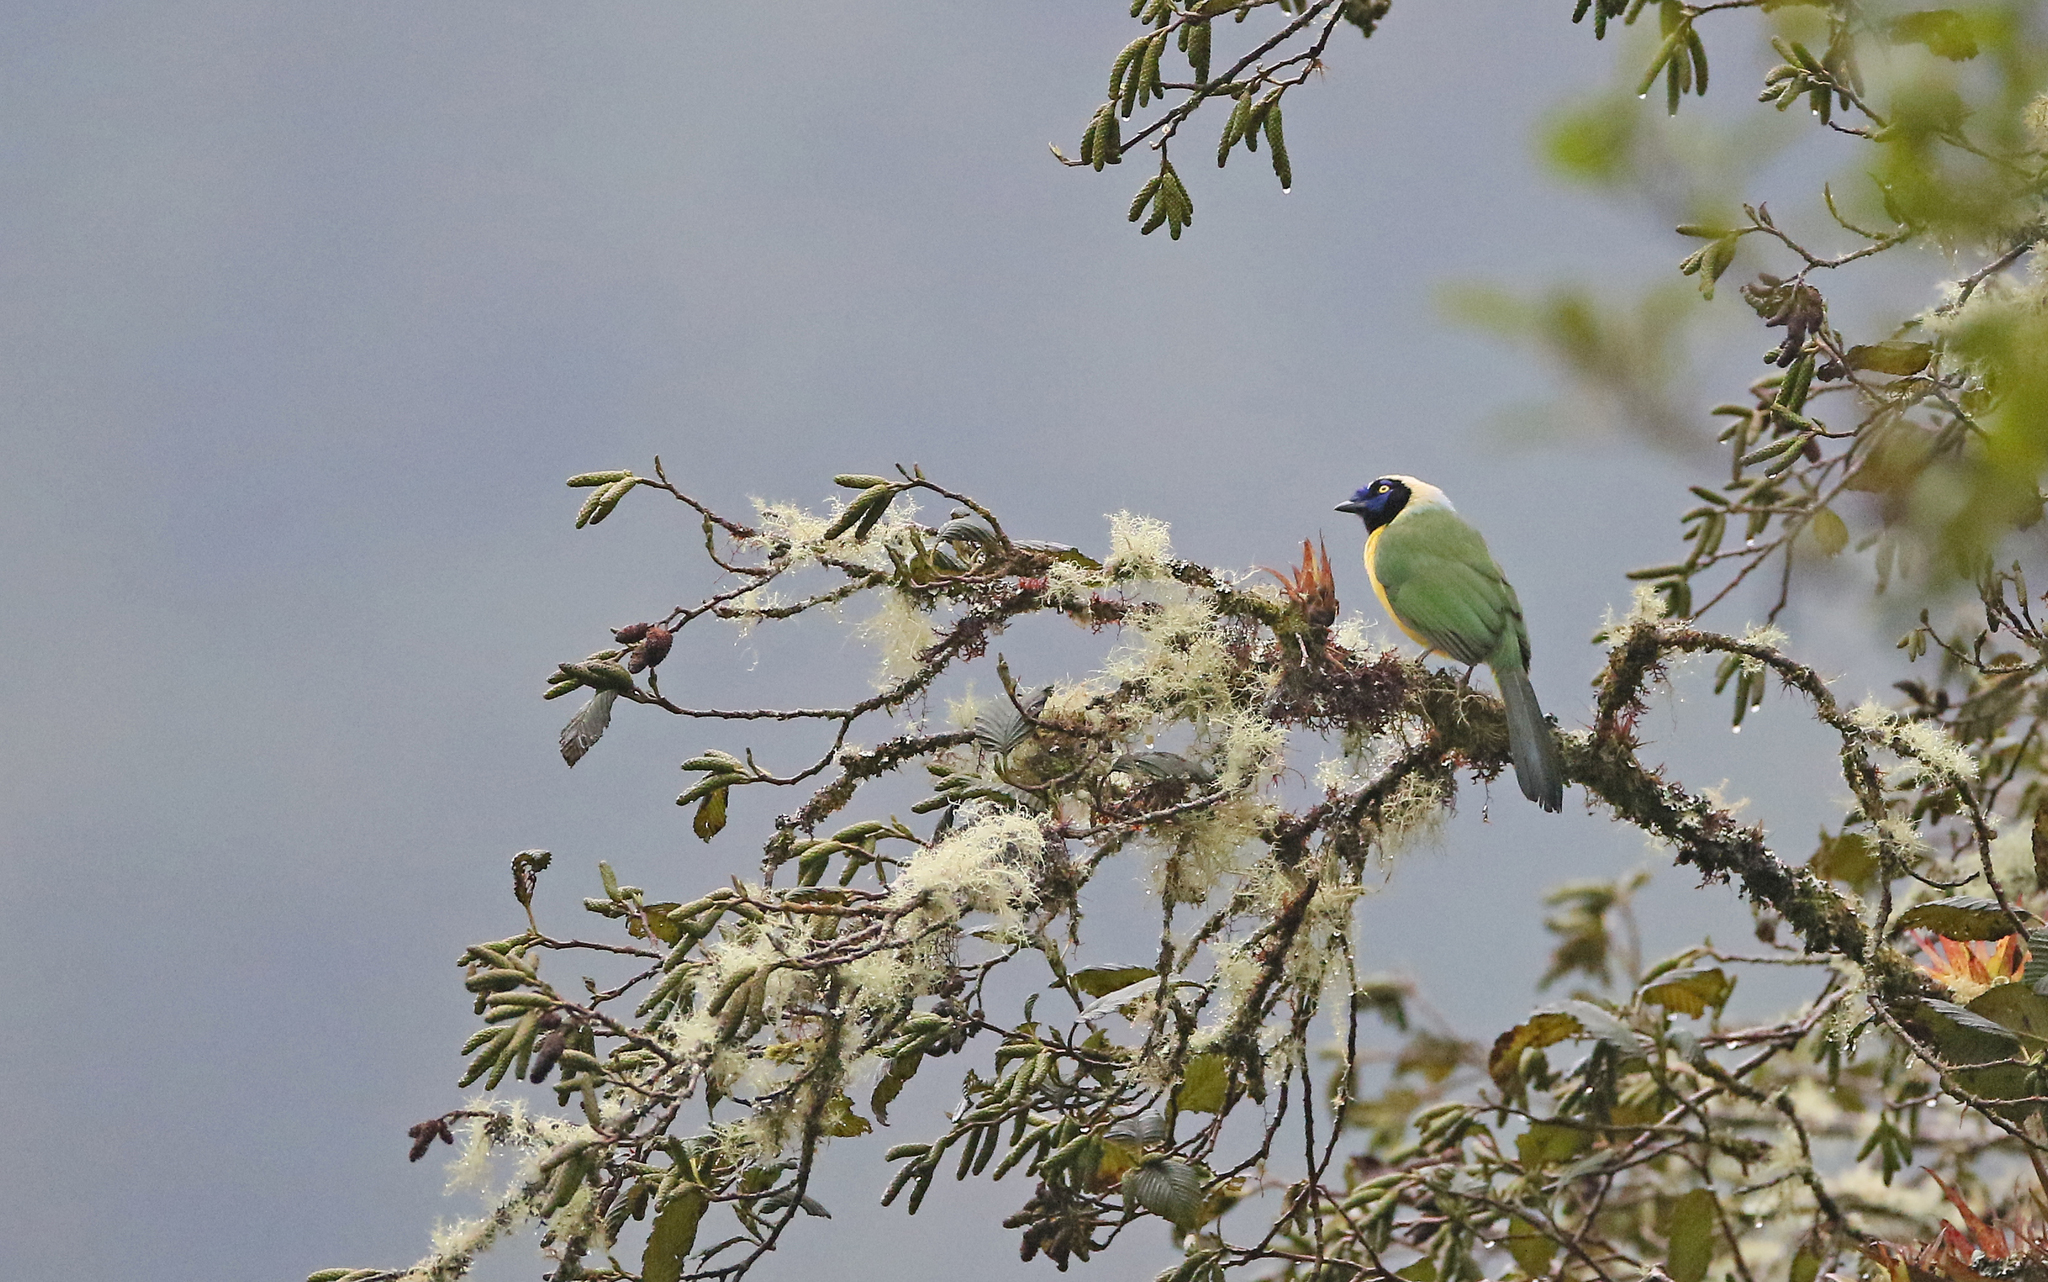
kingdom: Animalia
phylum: Chordata
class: Aves
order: Passeriformes
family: Corvidae
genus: Cyanocorax
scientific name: Cyanocorax yncas
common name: Green jay
